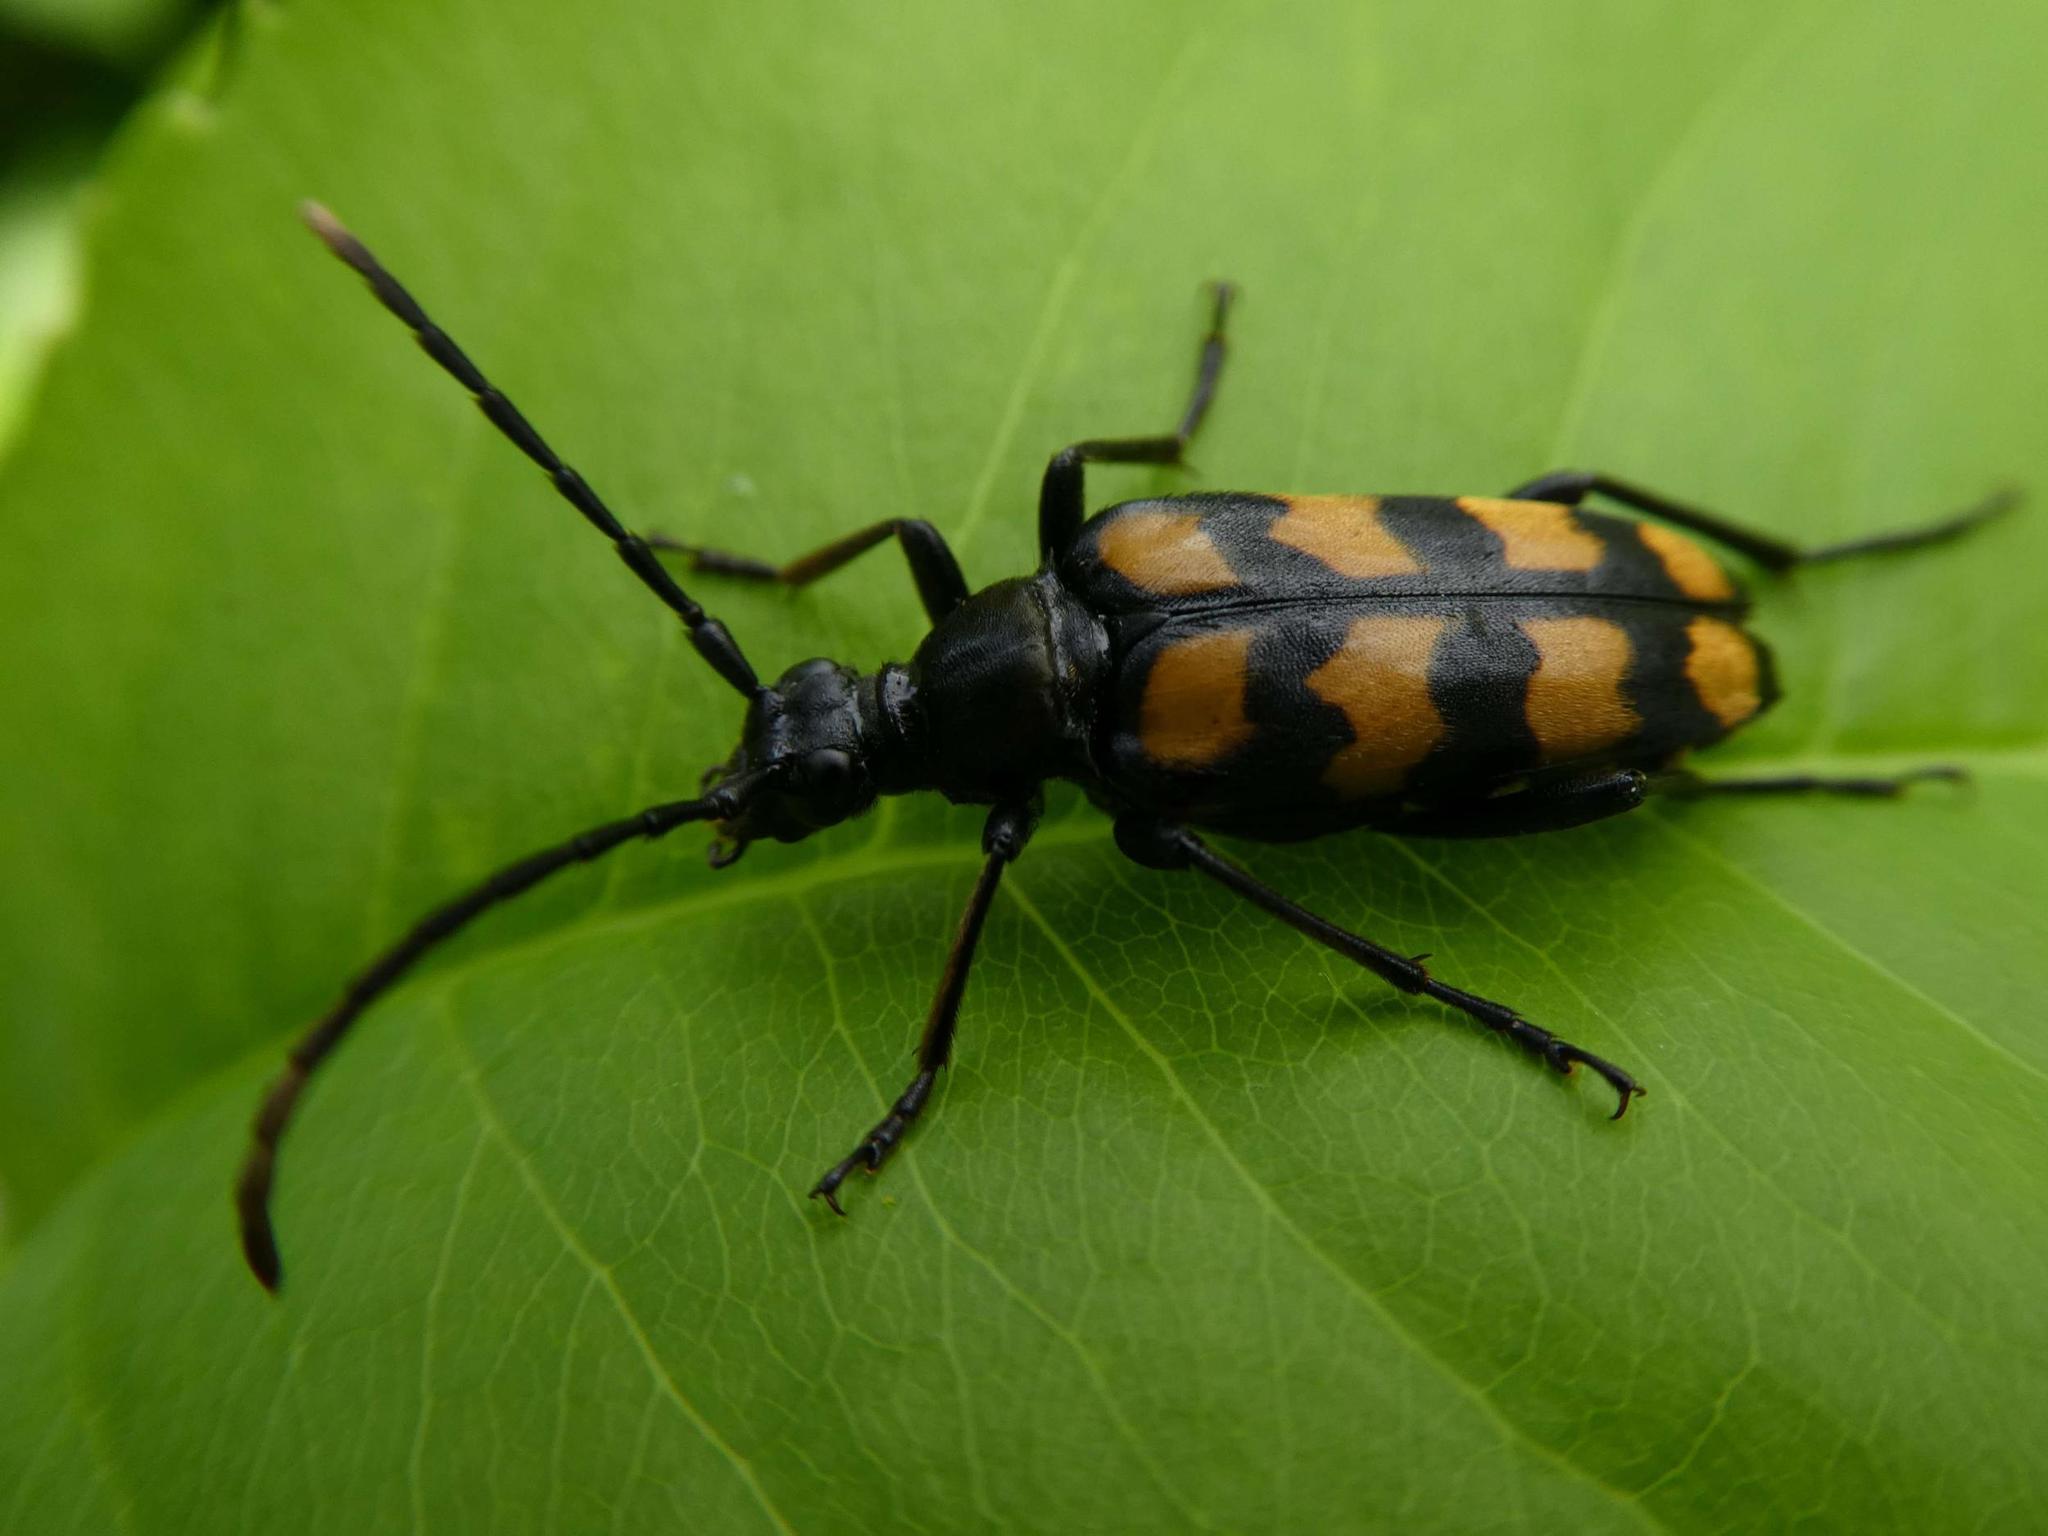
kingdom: Animalia
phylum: Arthropoda
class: Insecta
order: Coleoptera
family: Cerambycidae
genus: Leptura
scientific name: Leptura quadrifasciata
